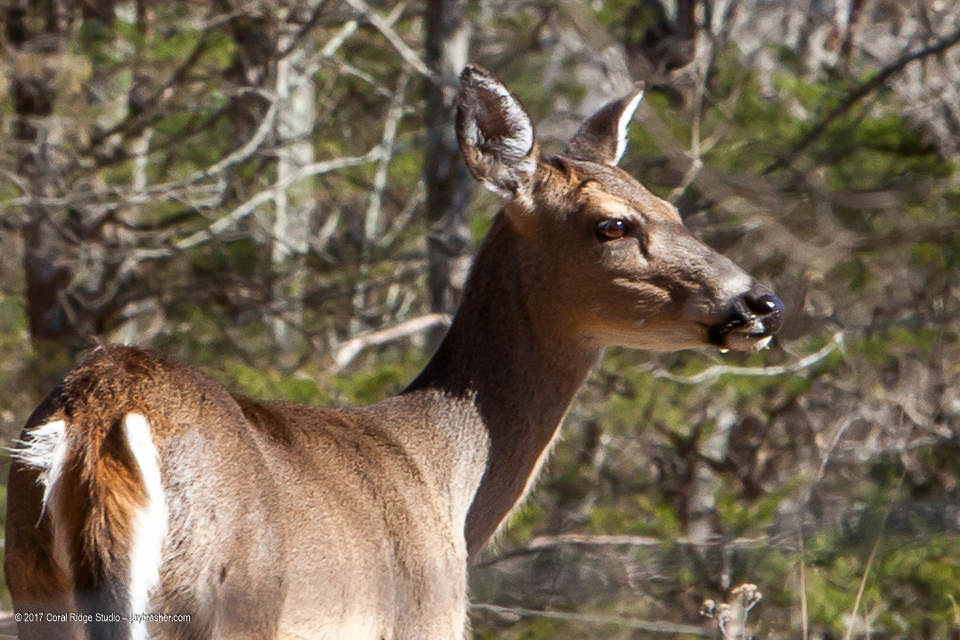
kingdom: Animalia
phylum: Chordata
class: Mammalia
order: Artiodactyla
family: Cervidae
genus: Odocoileus
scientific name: Odocoileus virginianus
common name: White-tailed deer
